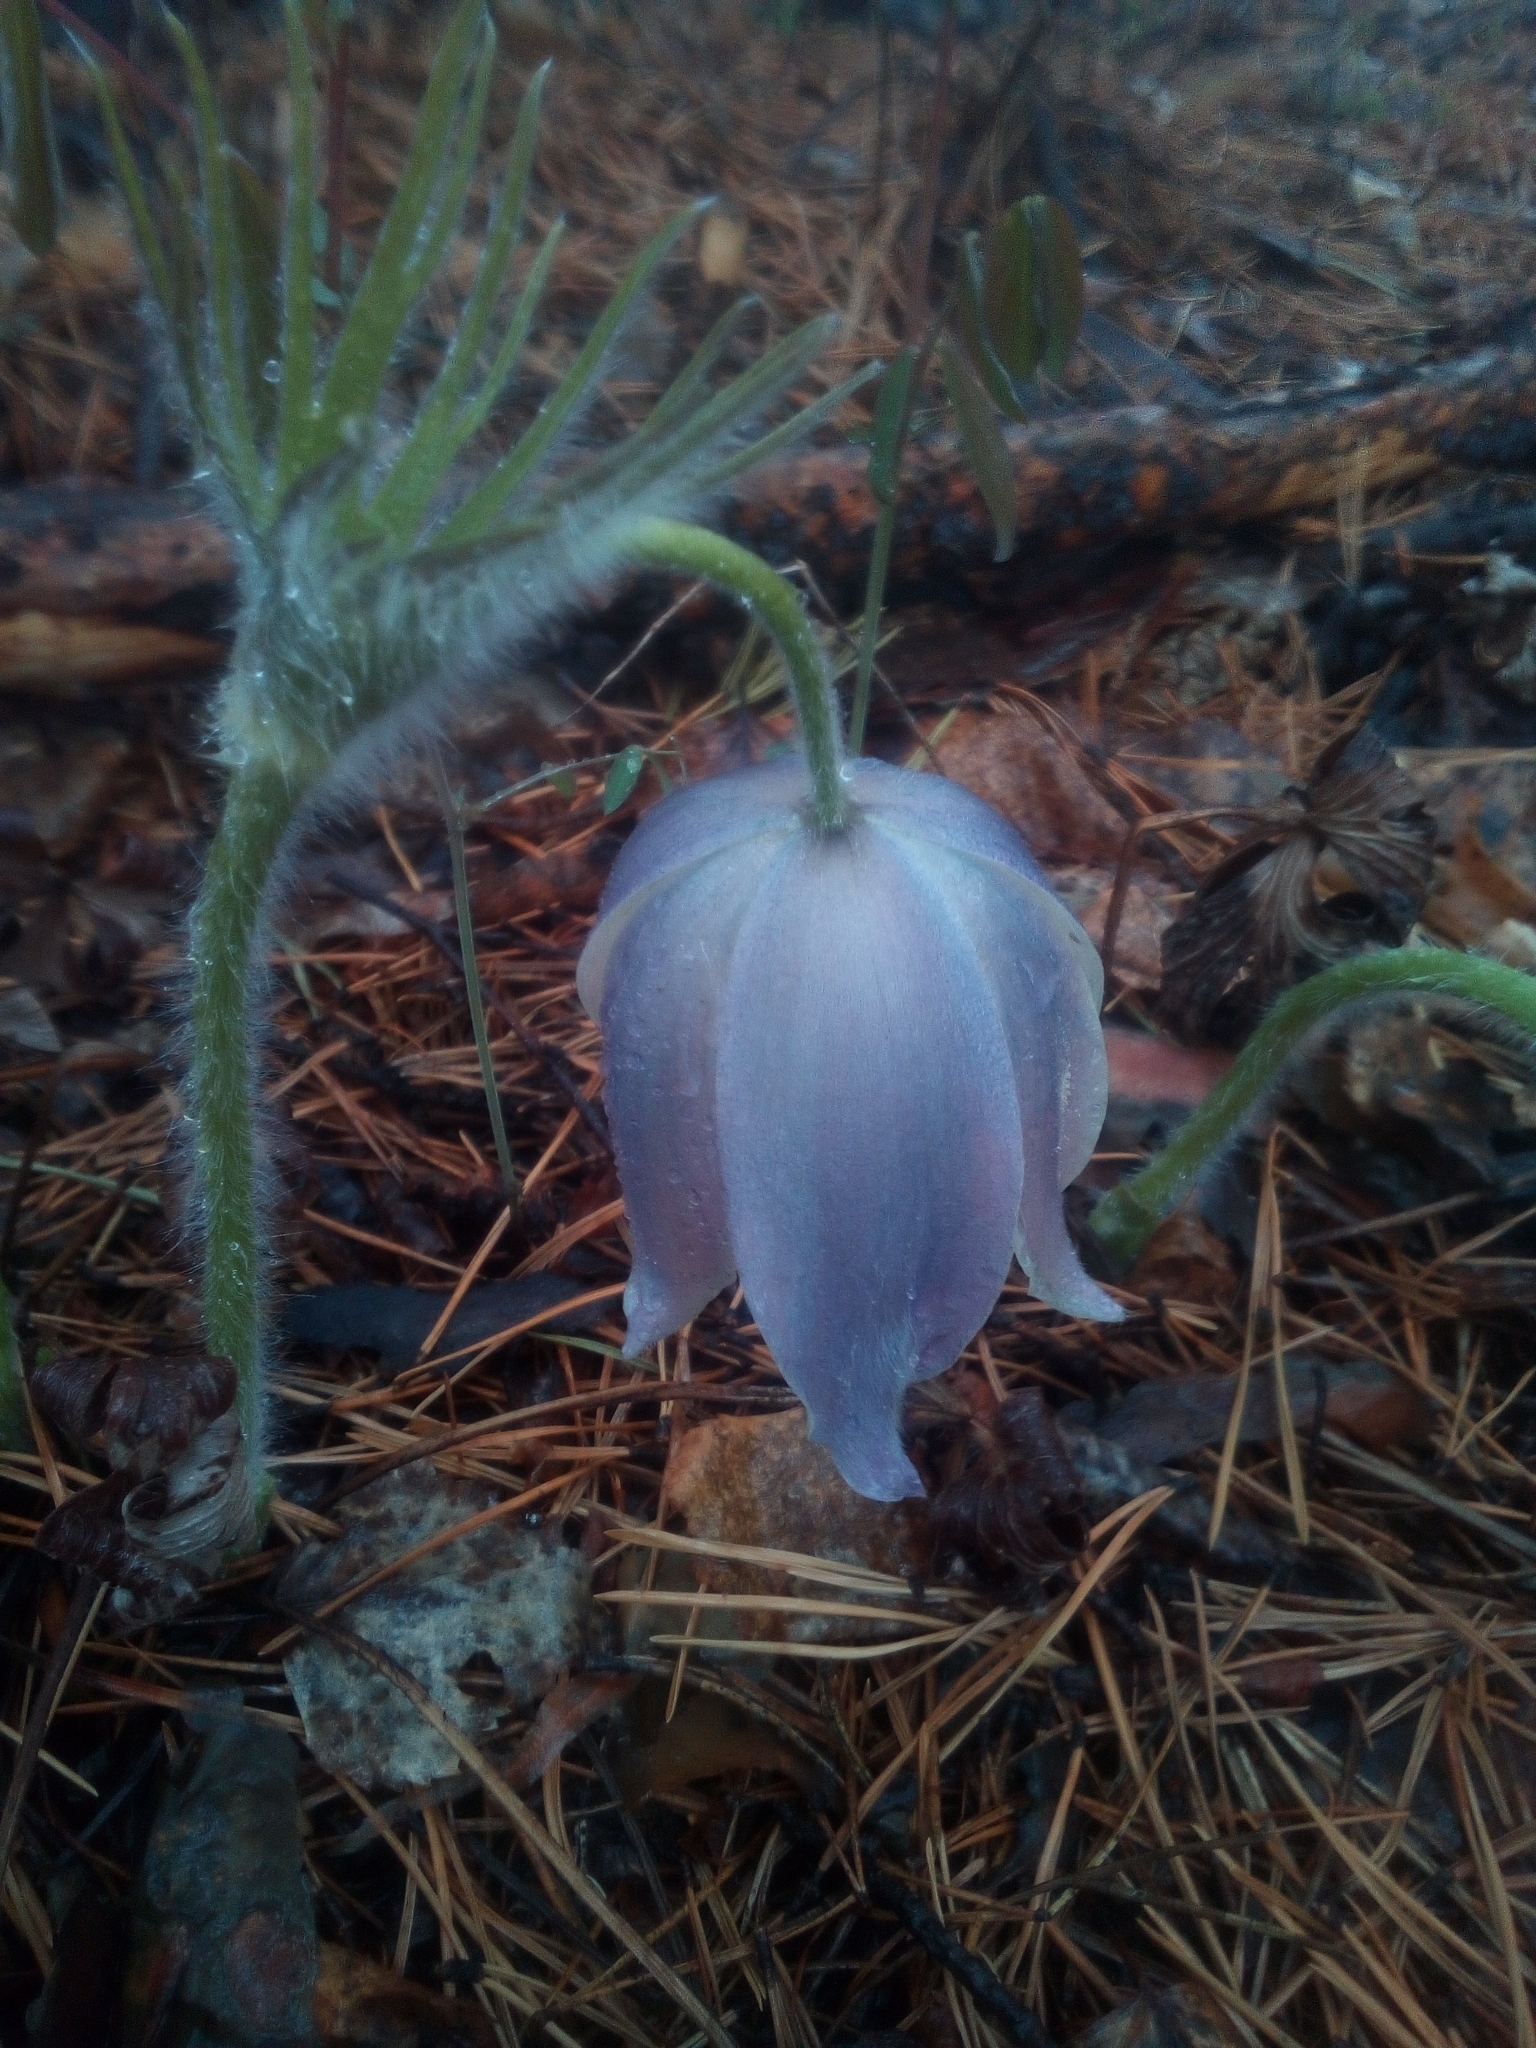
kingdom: Plantae
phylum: Tracheophyta
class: Magnoliopsida
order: Ranunculales
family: Ranunculaceae
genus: Pulsatilla
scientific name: Pulsatilla patens
